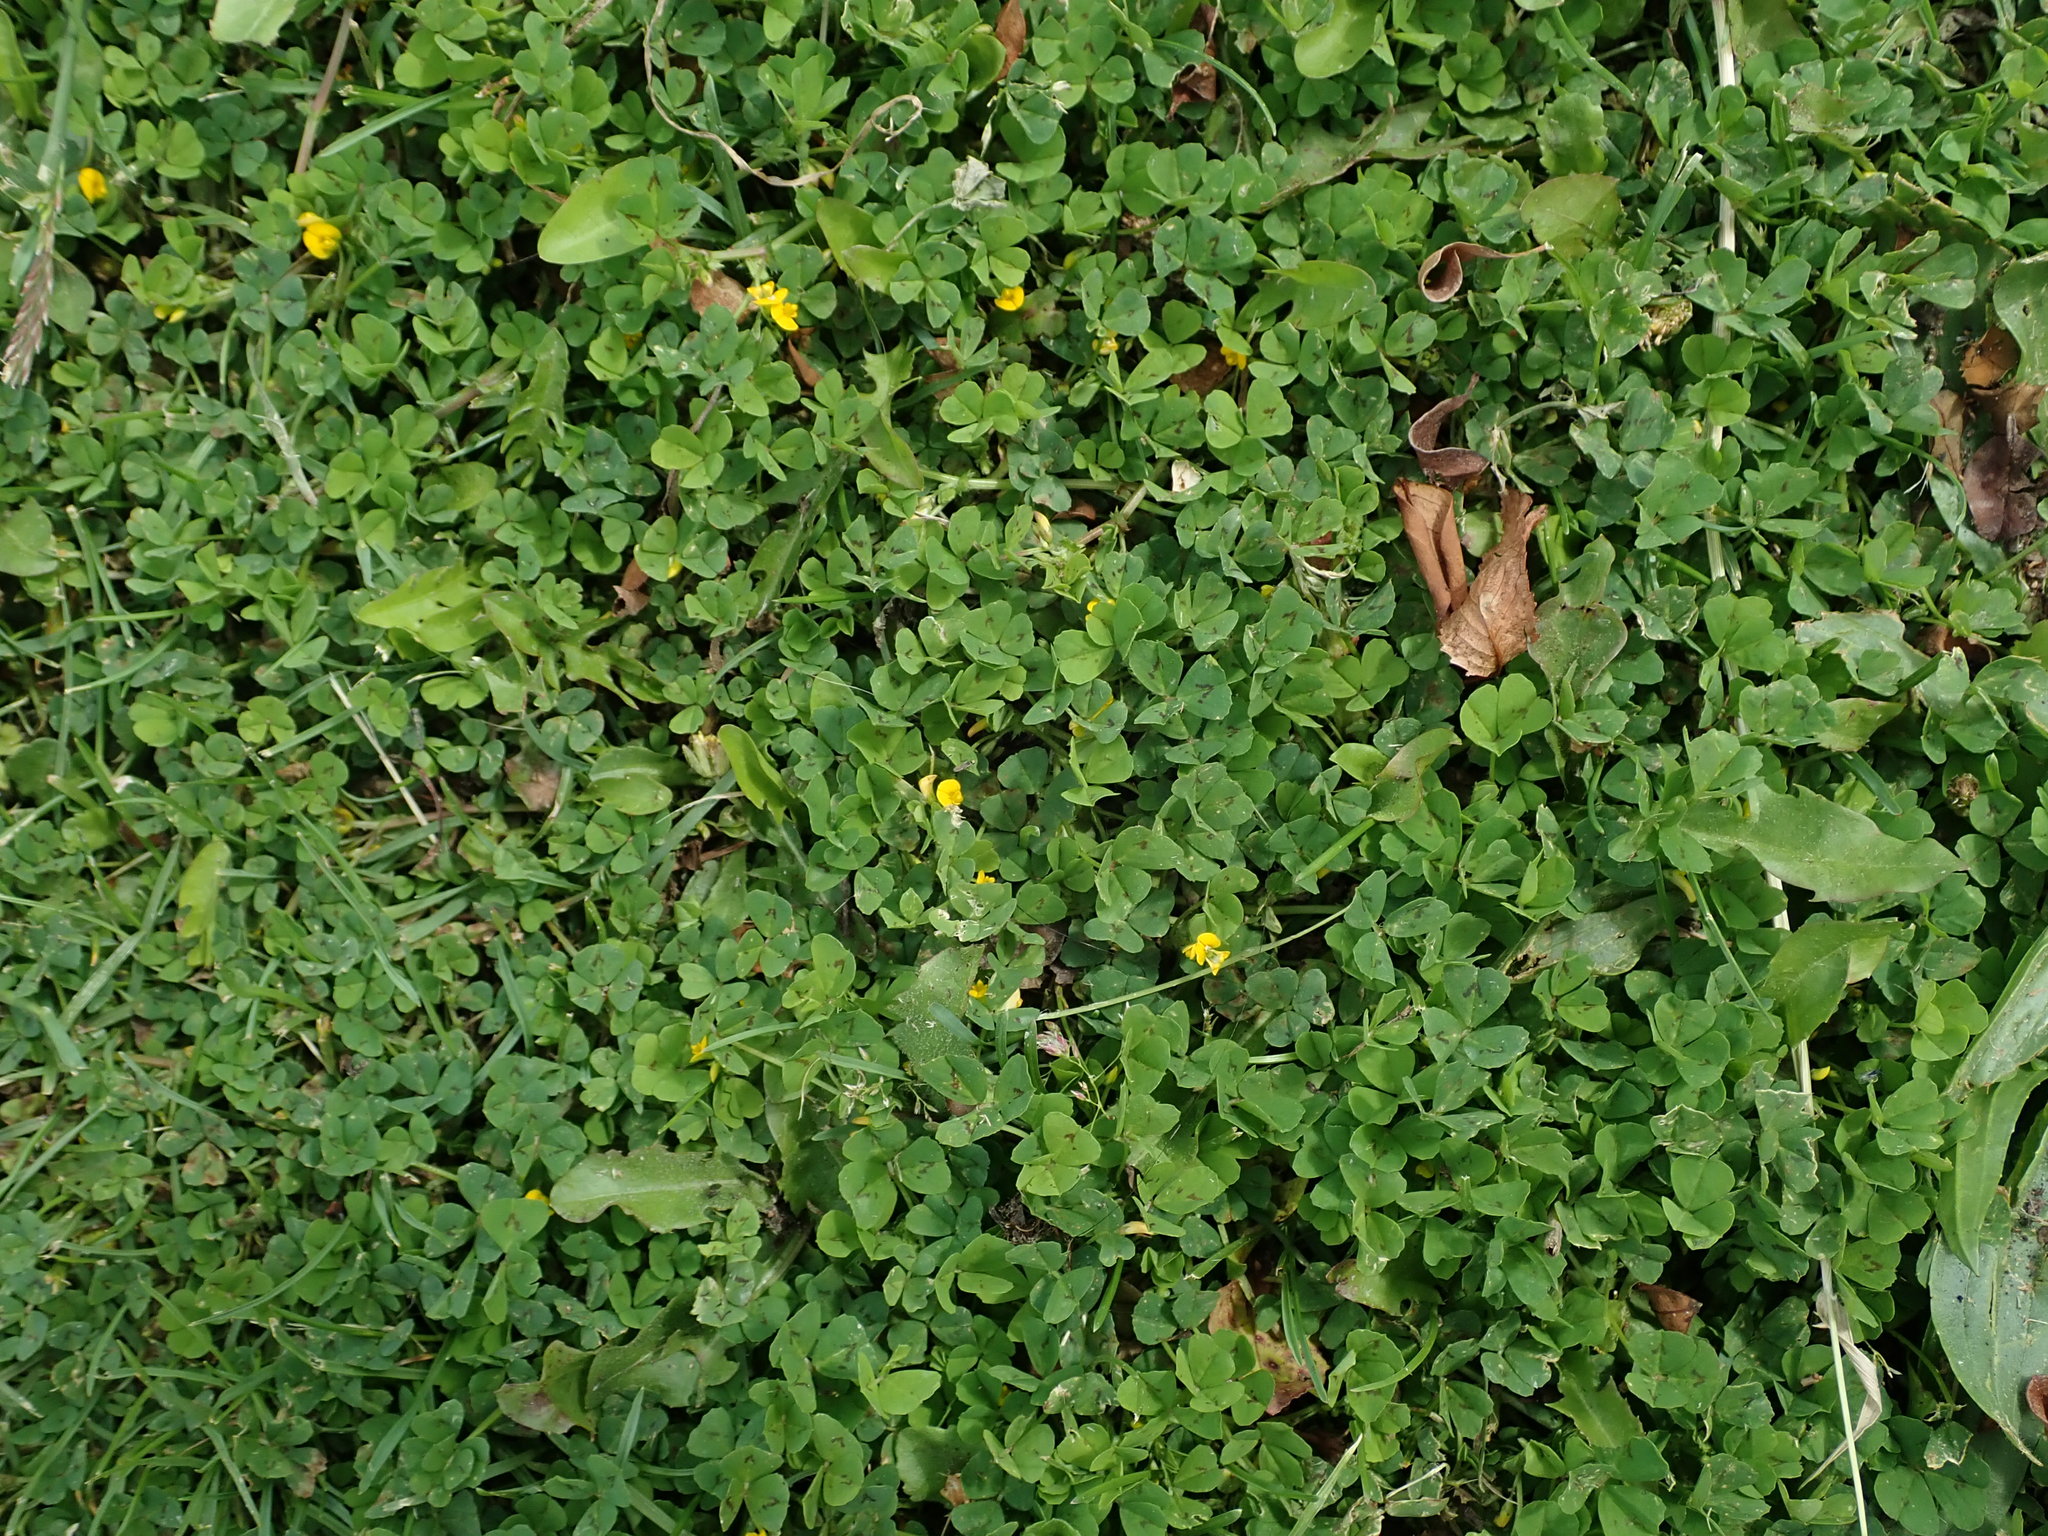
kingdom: Plantae
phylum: Tracheophyta
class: Magnoliopsida
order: Fabales
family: Fabaceae
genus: Medicago
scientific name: Medicago arabica
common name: Spotted medick
